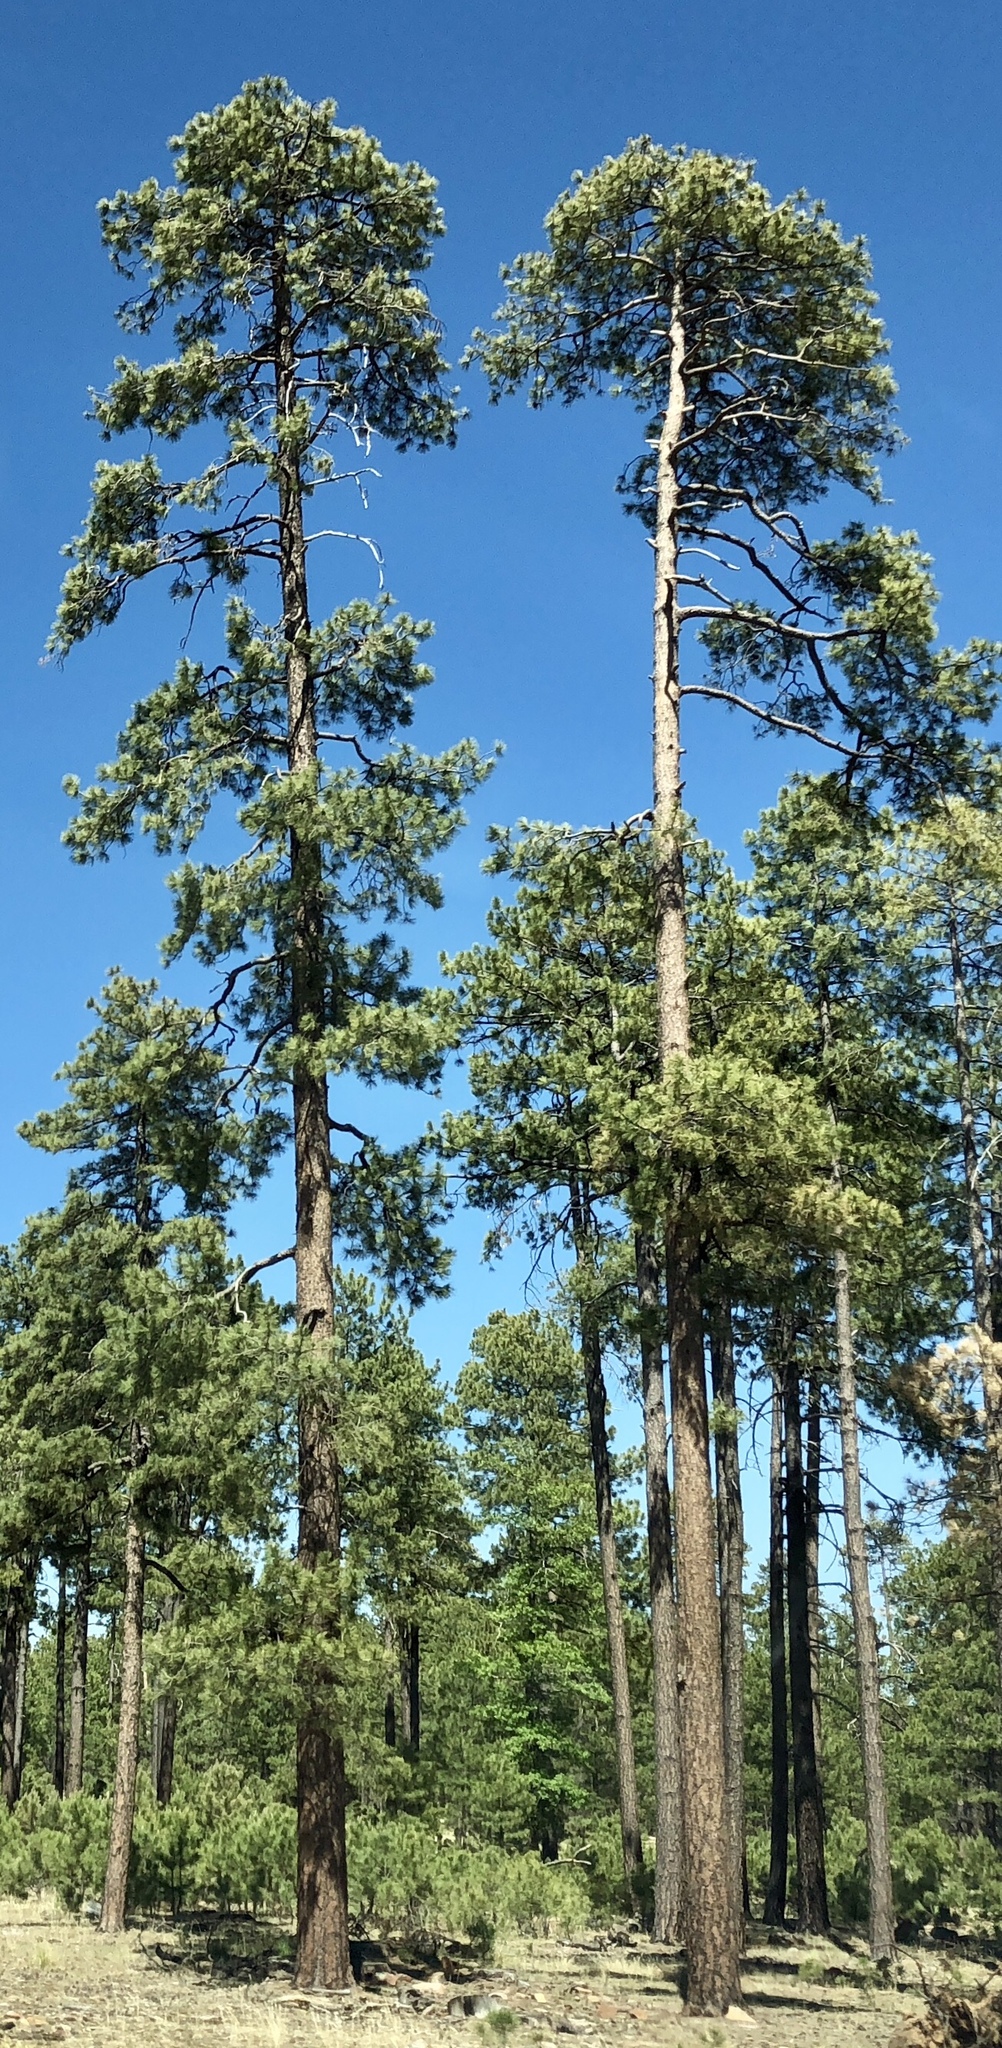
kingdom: Plantae
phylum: Tracheophyta
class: Pinopsida
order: Pinales
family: Pinaceae
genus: Pinus
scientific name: Pinus ponderosa
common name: Western yellow-pine
